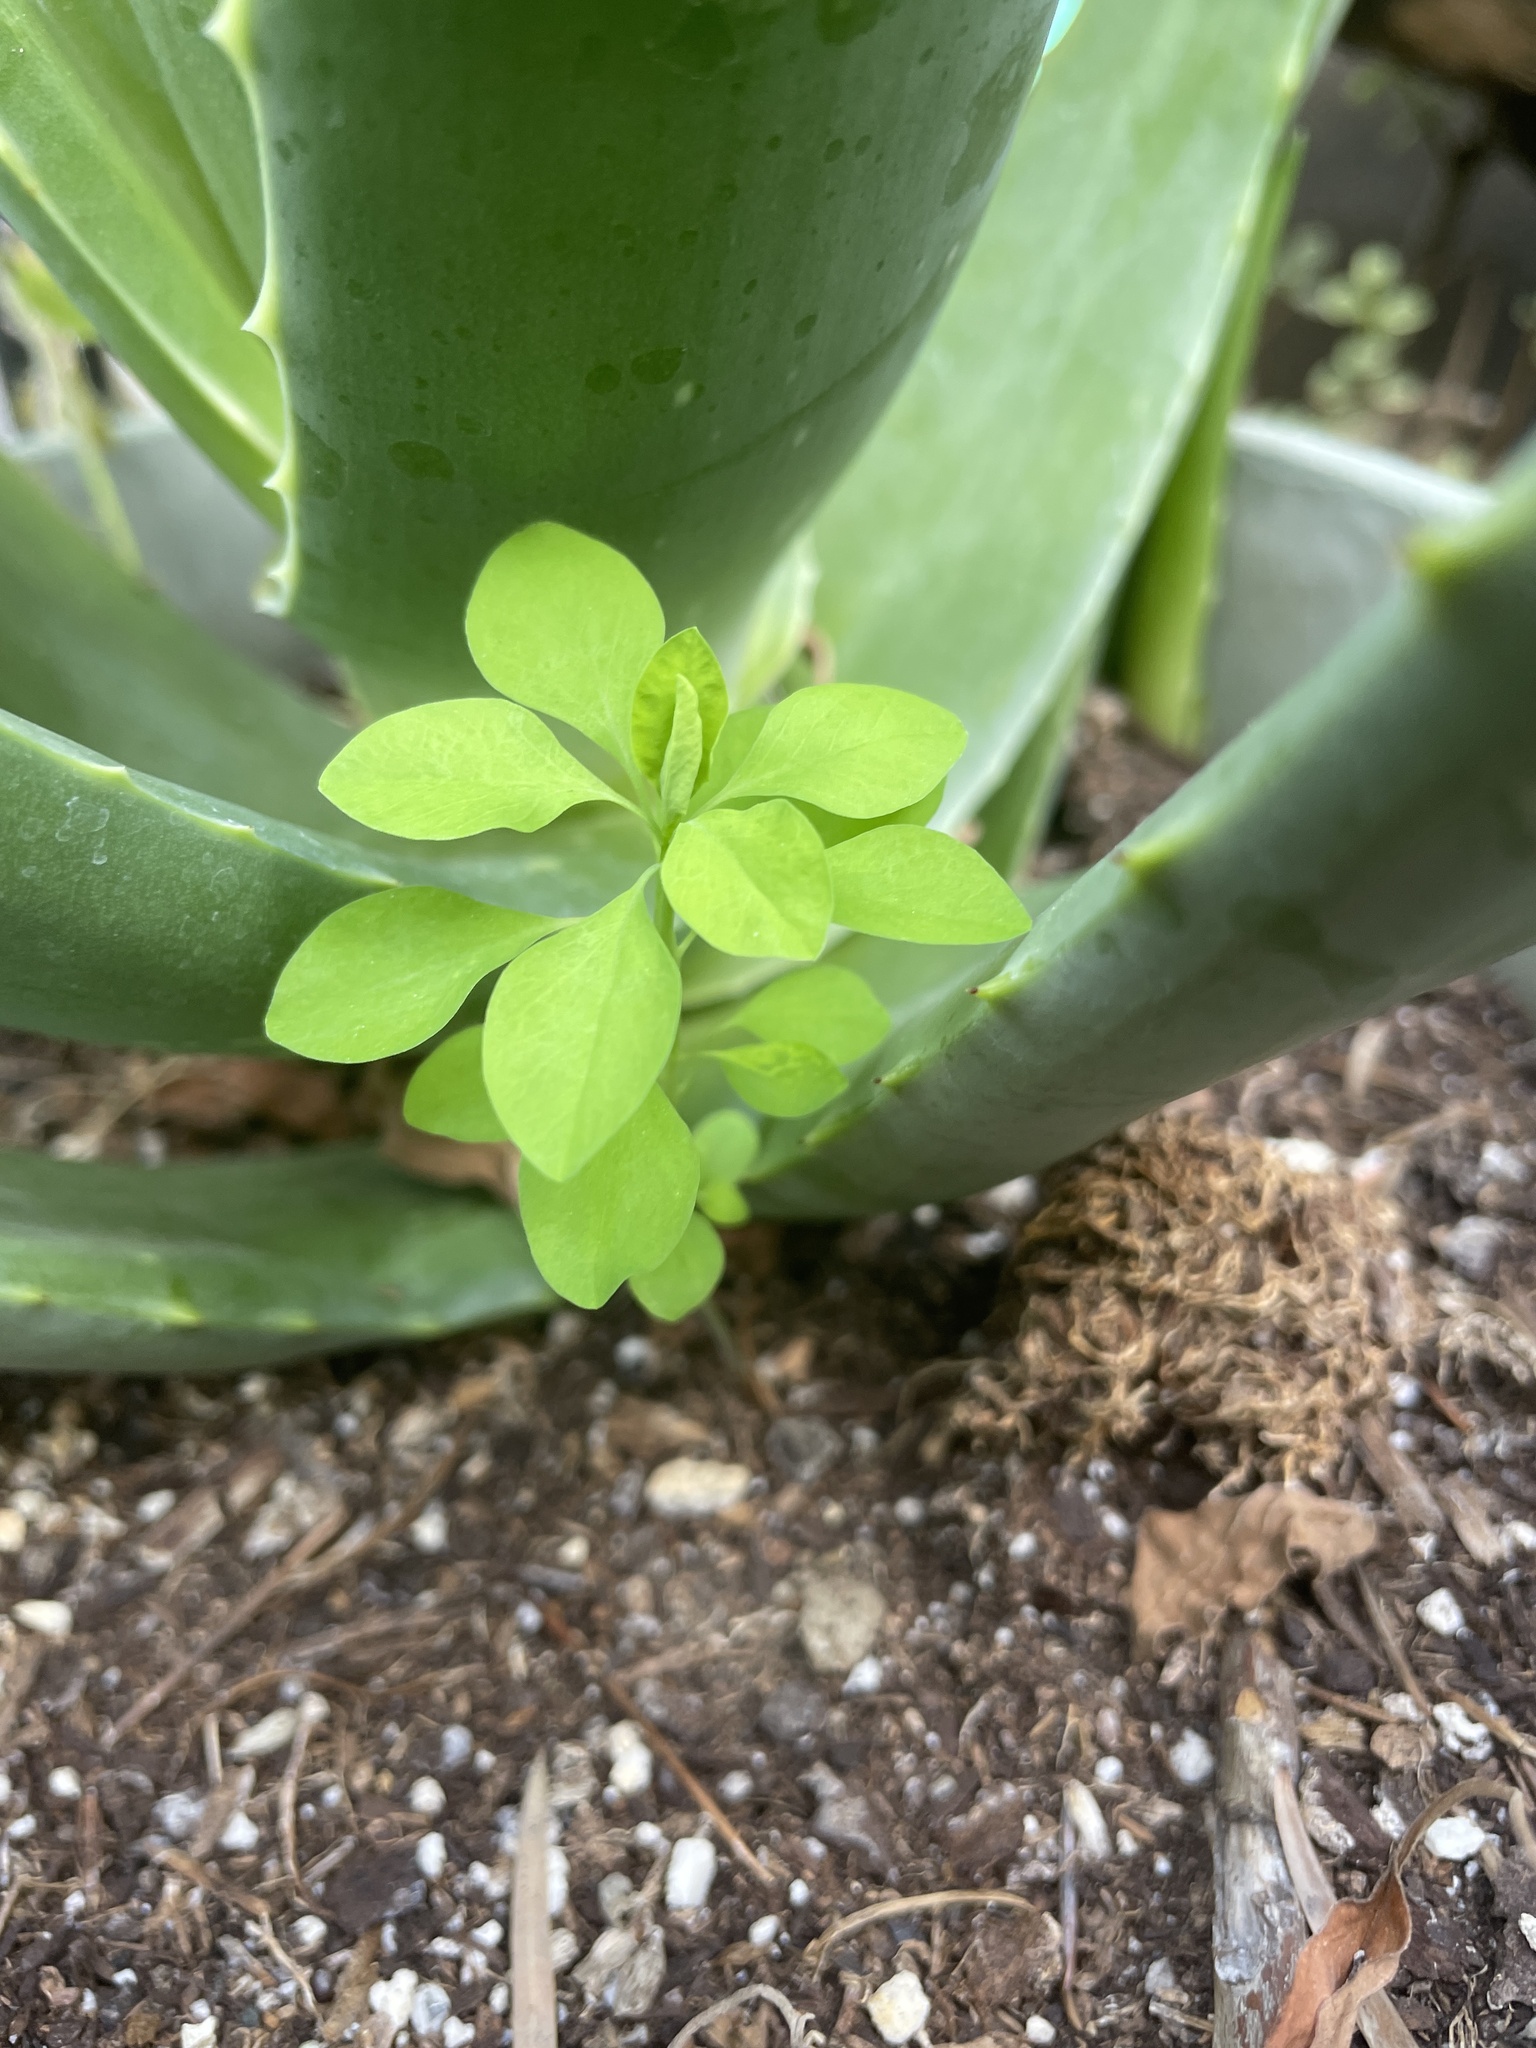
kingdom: Plantae
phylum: Tracheophyta
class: Magnoliopsida
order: Malpighiales
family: Euphorbiaceae
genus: Euphorbia
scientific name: Euphorbia peplus
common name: Petty spurge
